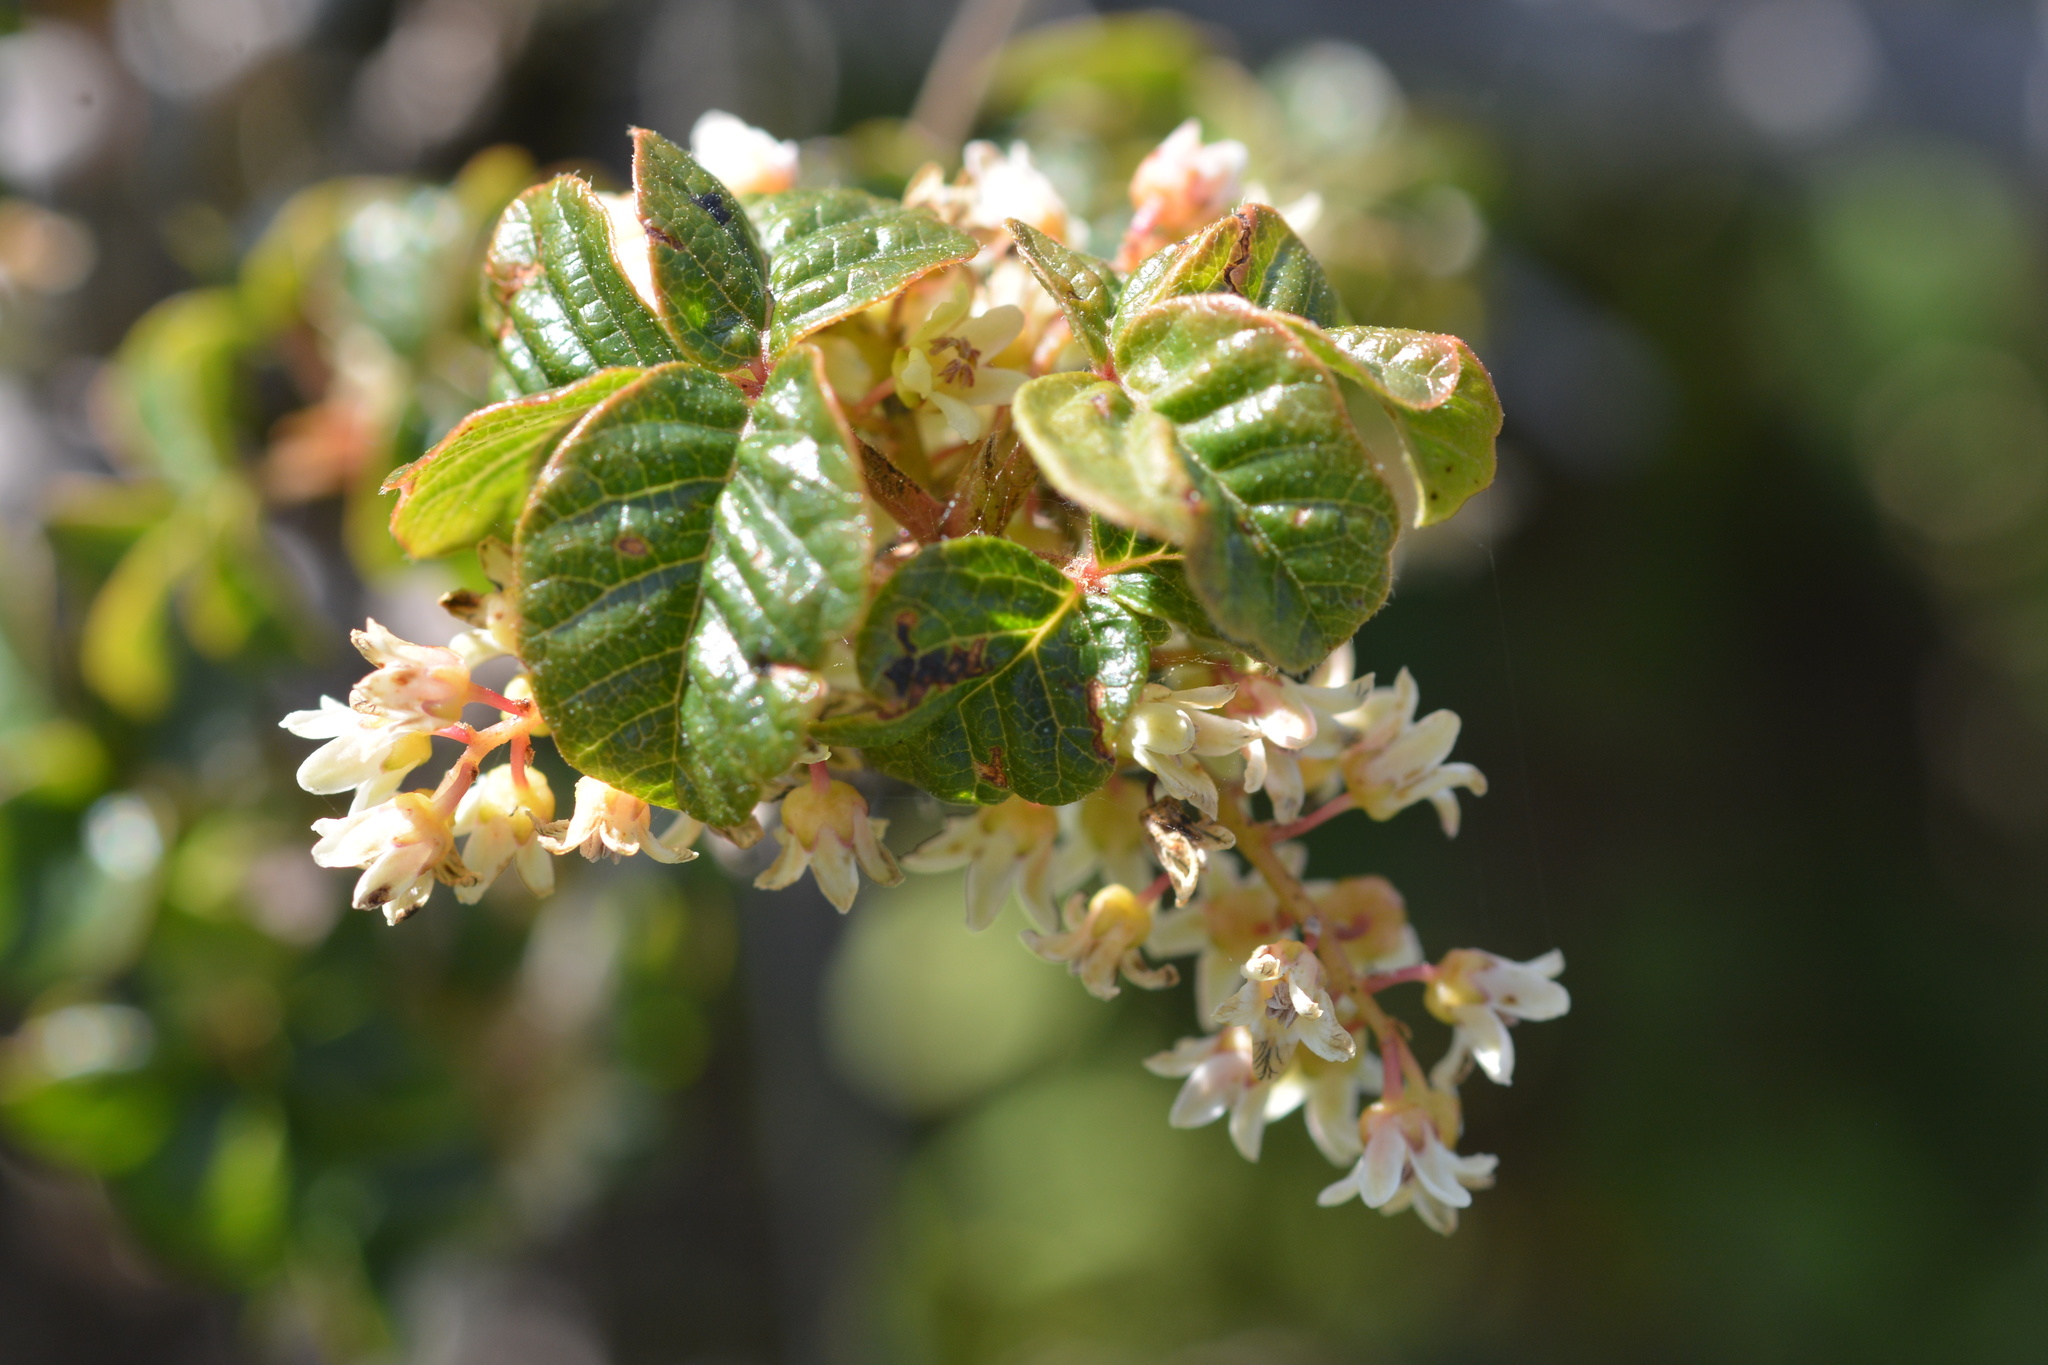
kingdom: Plantae
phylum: Tracheophyta
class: Magnoliopsida
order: Sapindales
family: Anacardiaceae
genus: Toxicodendron
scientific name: Toxicodendron diversilobum
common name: Pacific poison-oak
